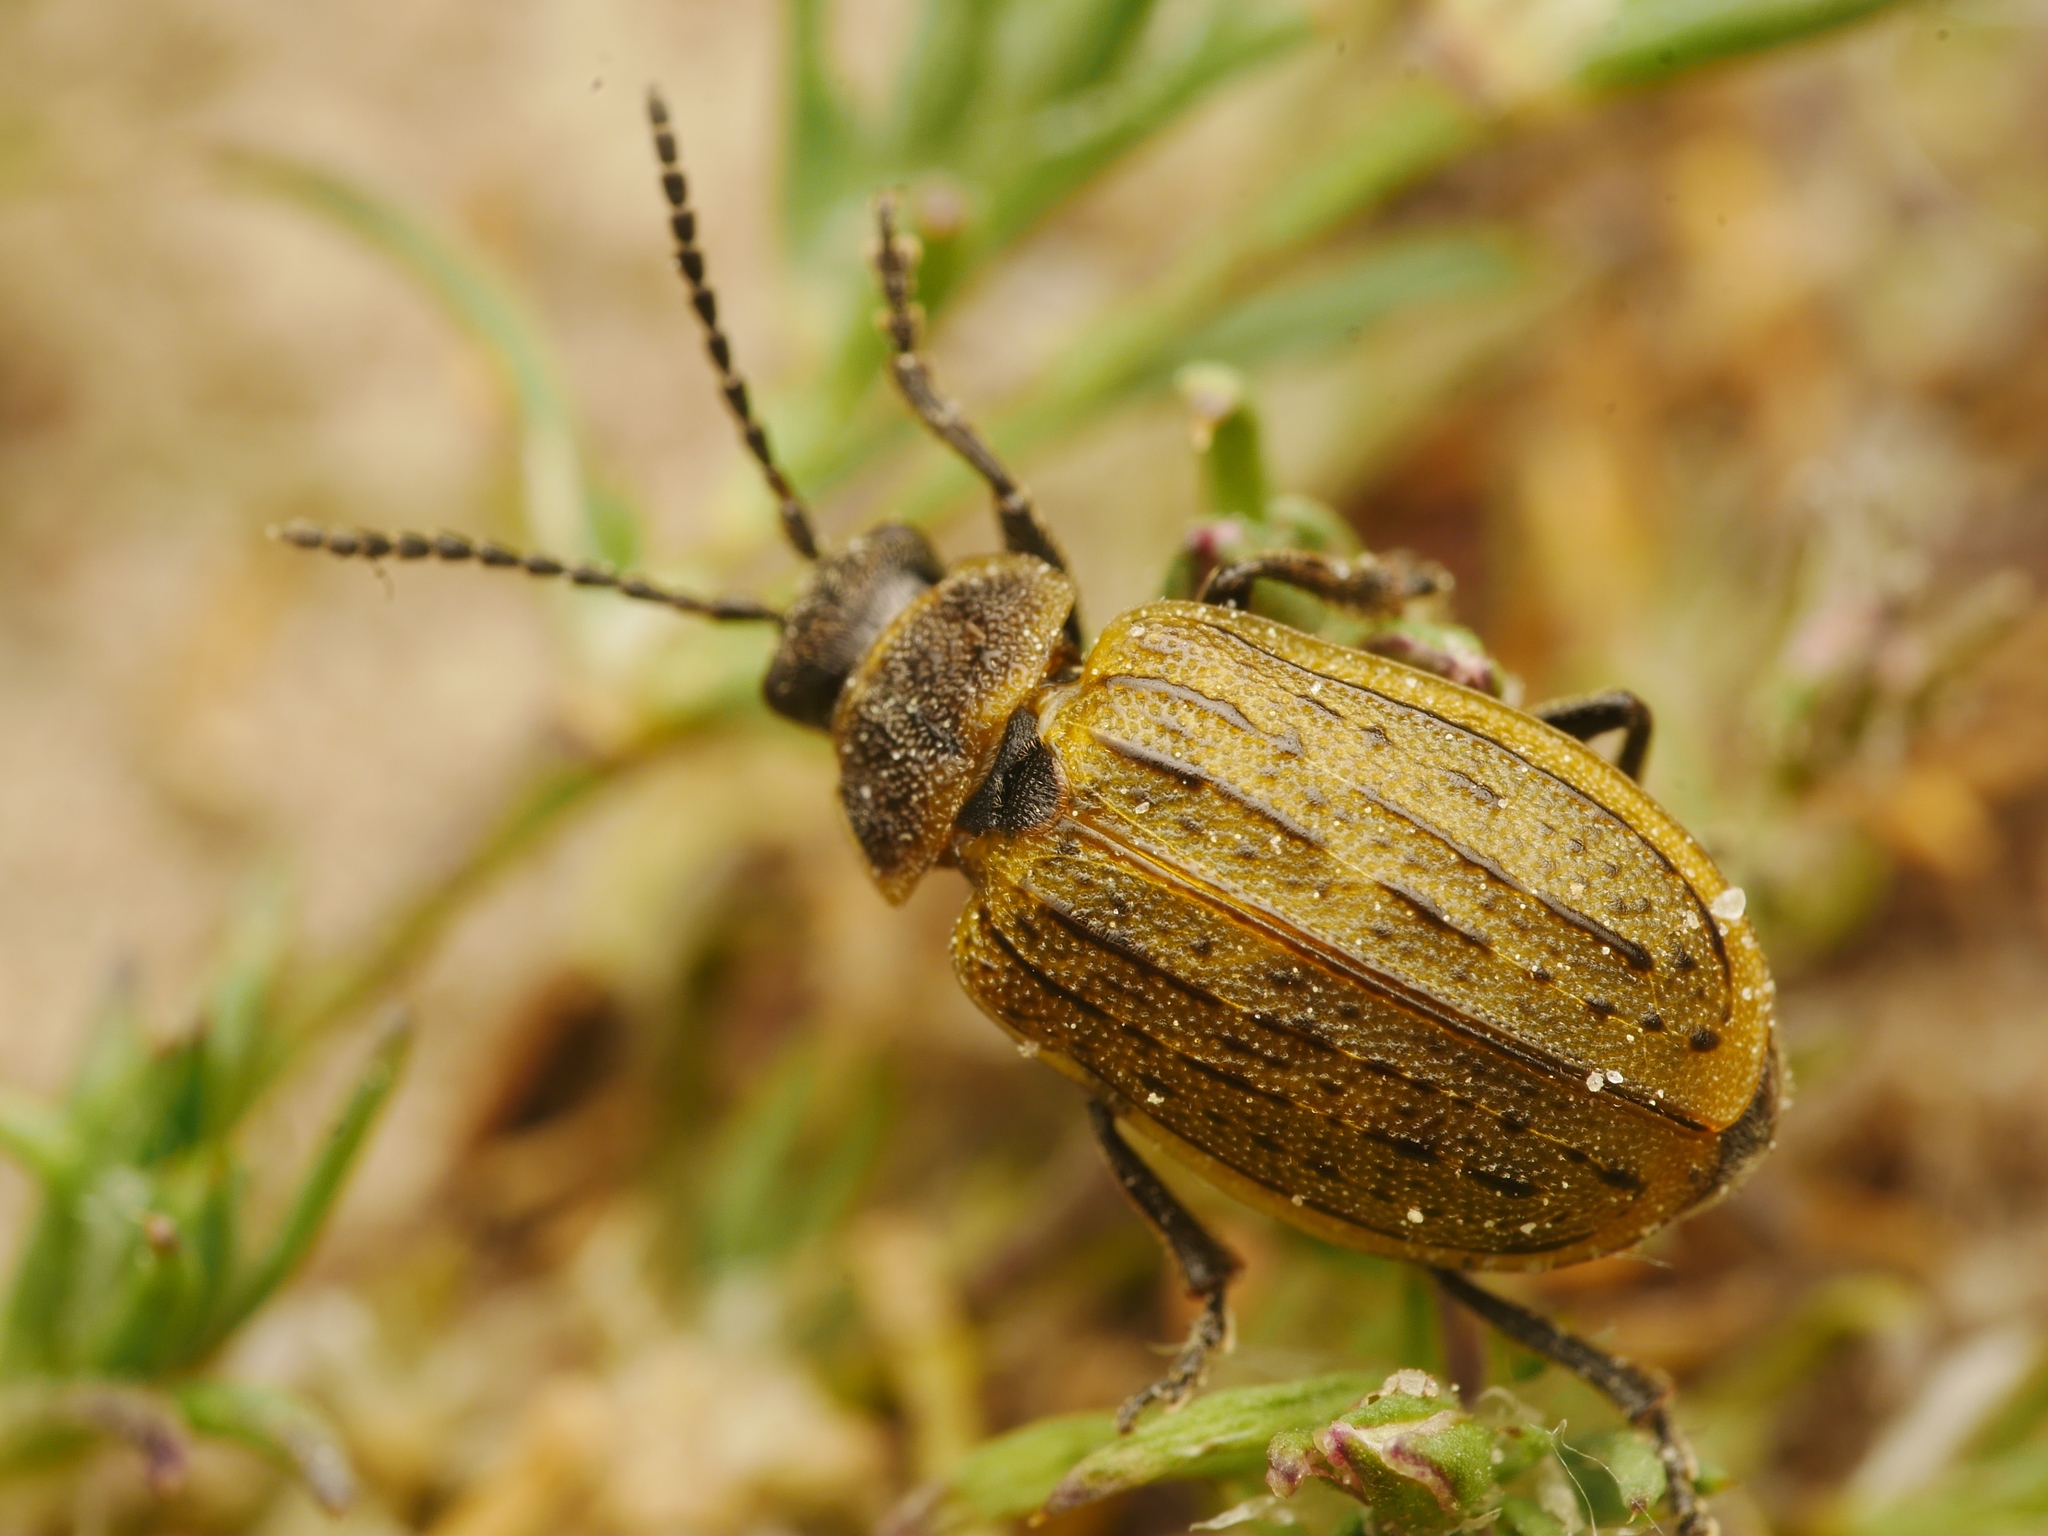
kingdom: Animalia
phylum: Arthropoda
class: Insecta
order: Coleoptera
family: Chrysomelidae
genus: Galeruca
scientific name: Galeruca interrupta
